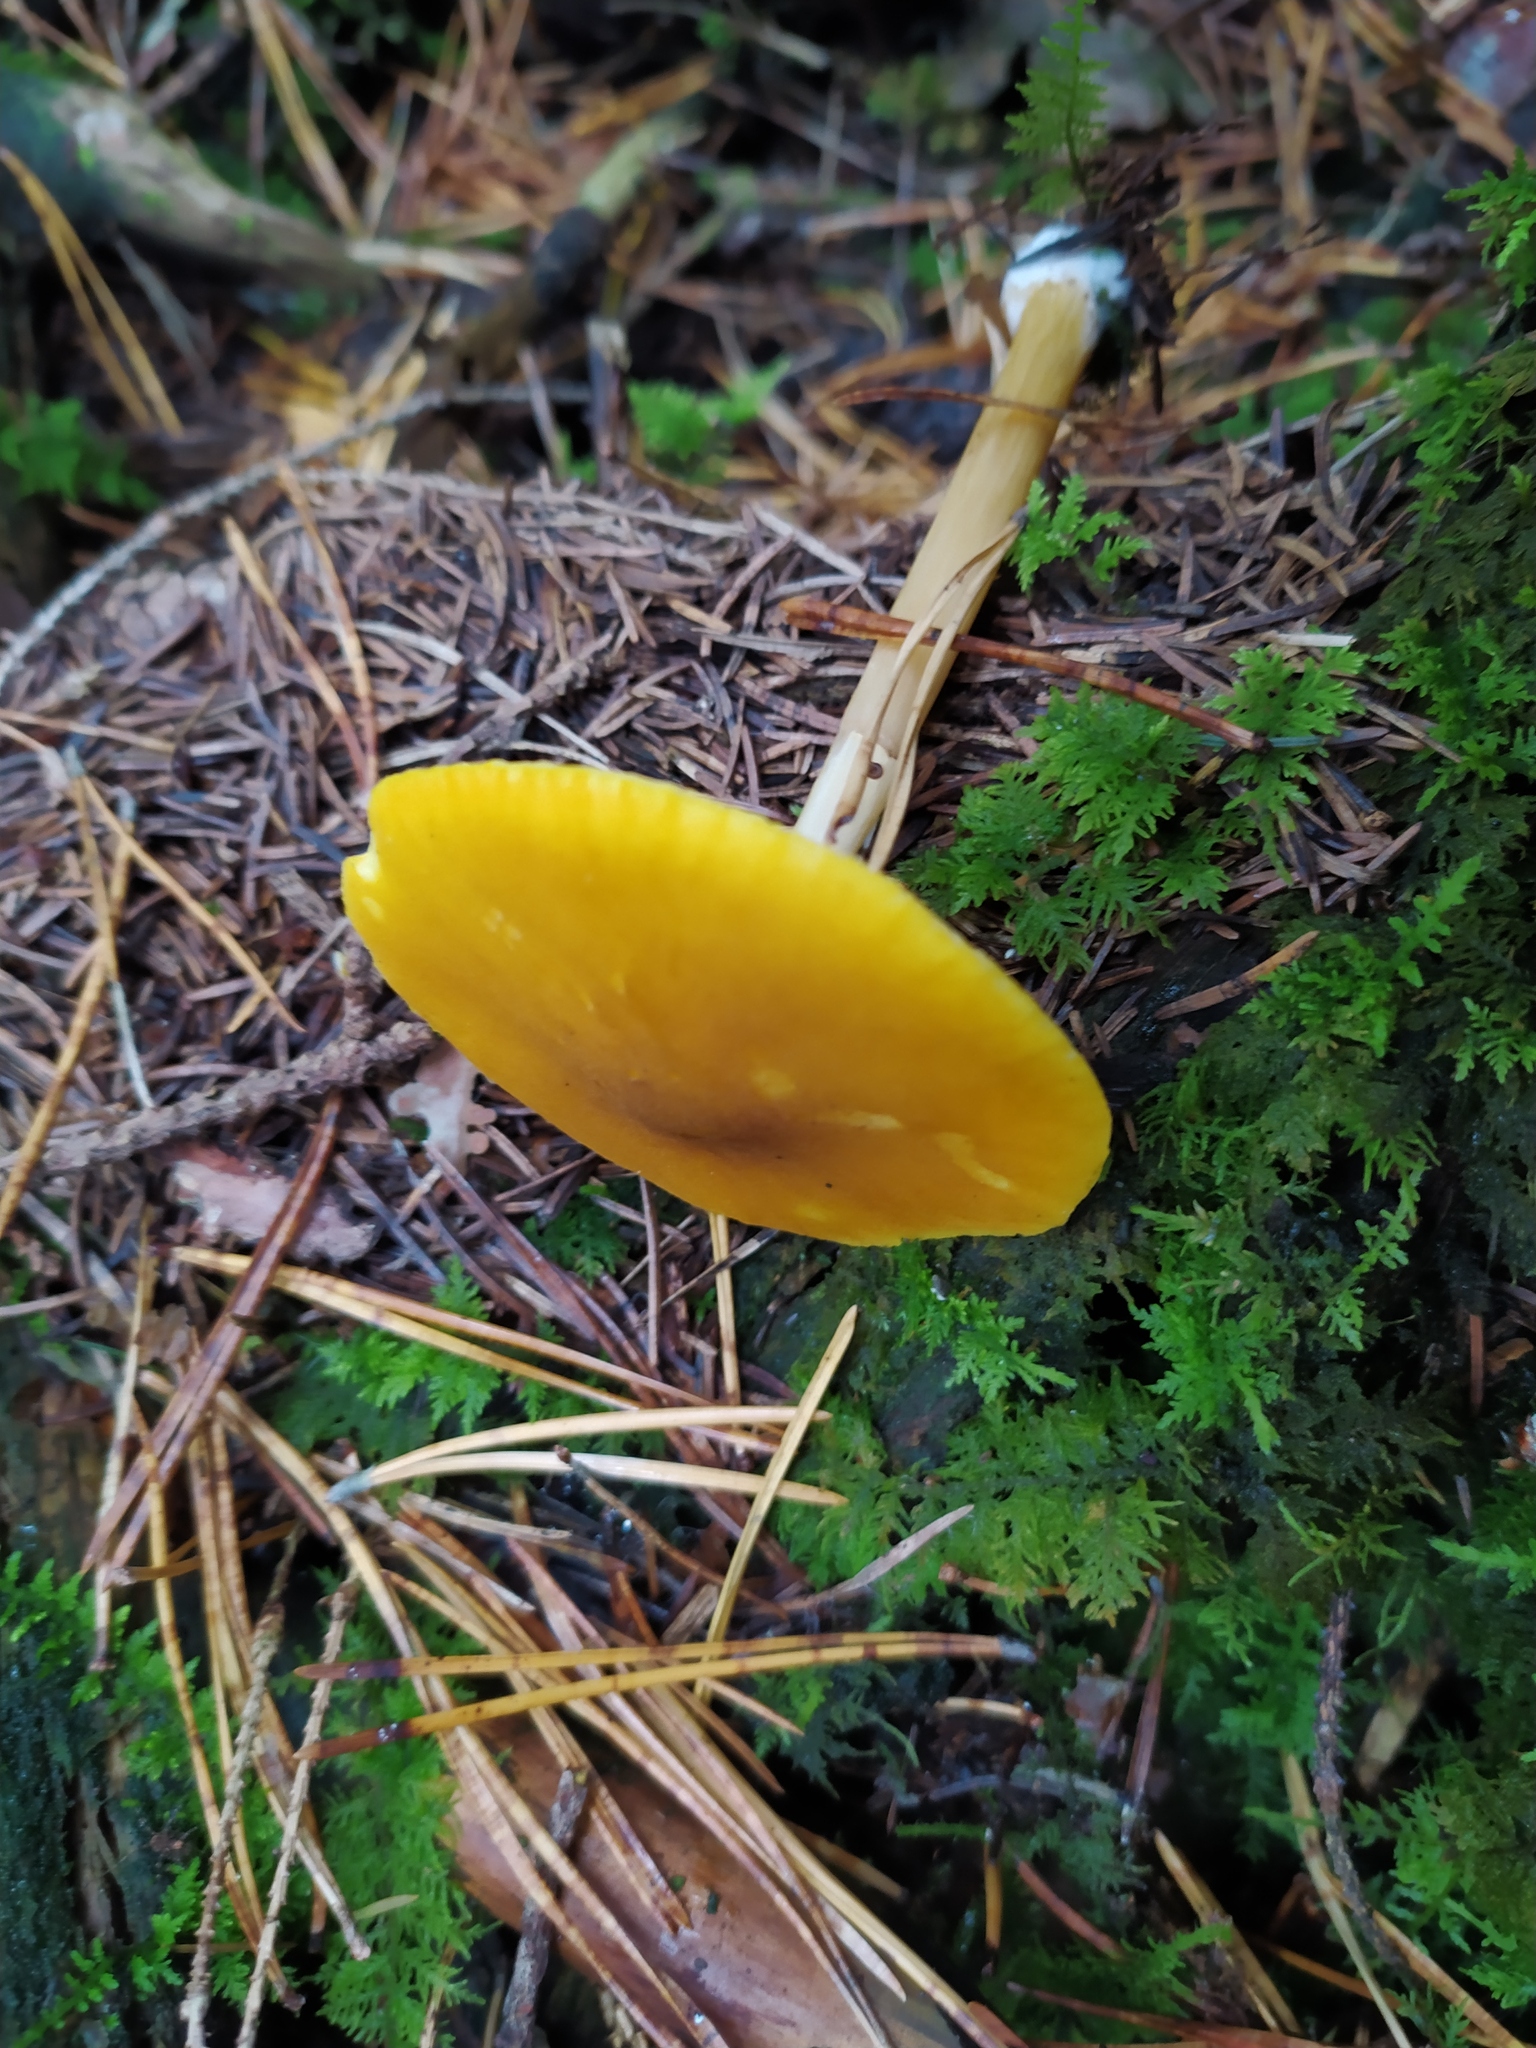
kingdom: Fungi
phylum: Basidiomycota
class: Agaricomycetes
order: Agaricales
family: Pluteaceae
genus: Pluteus
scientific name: Pluteus leoninus
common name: Lion shield
